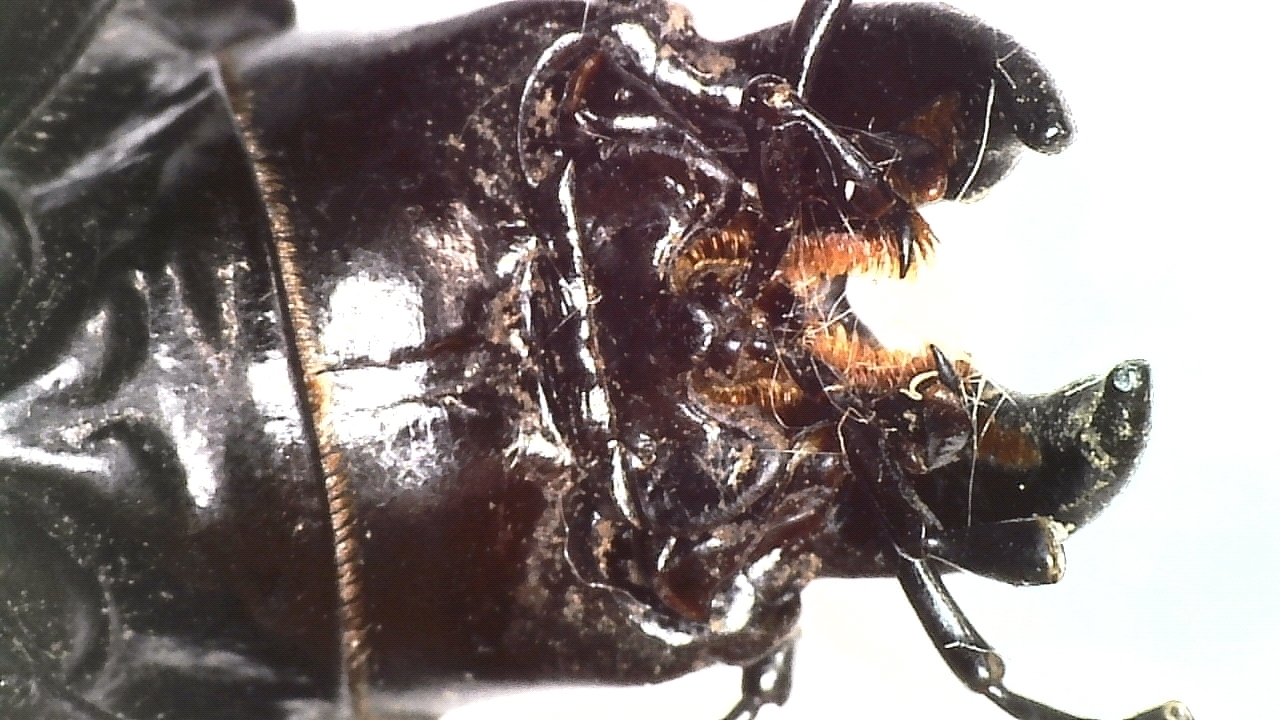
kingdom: Animalia
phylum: Arthropoda
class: Insecta
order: Coleoptera
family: Carabidae
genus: Carabus
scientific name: Carabus cicatricosus
